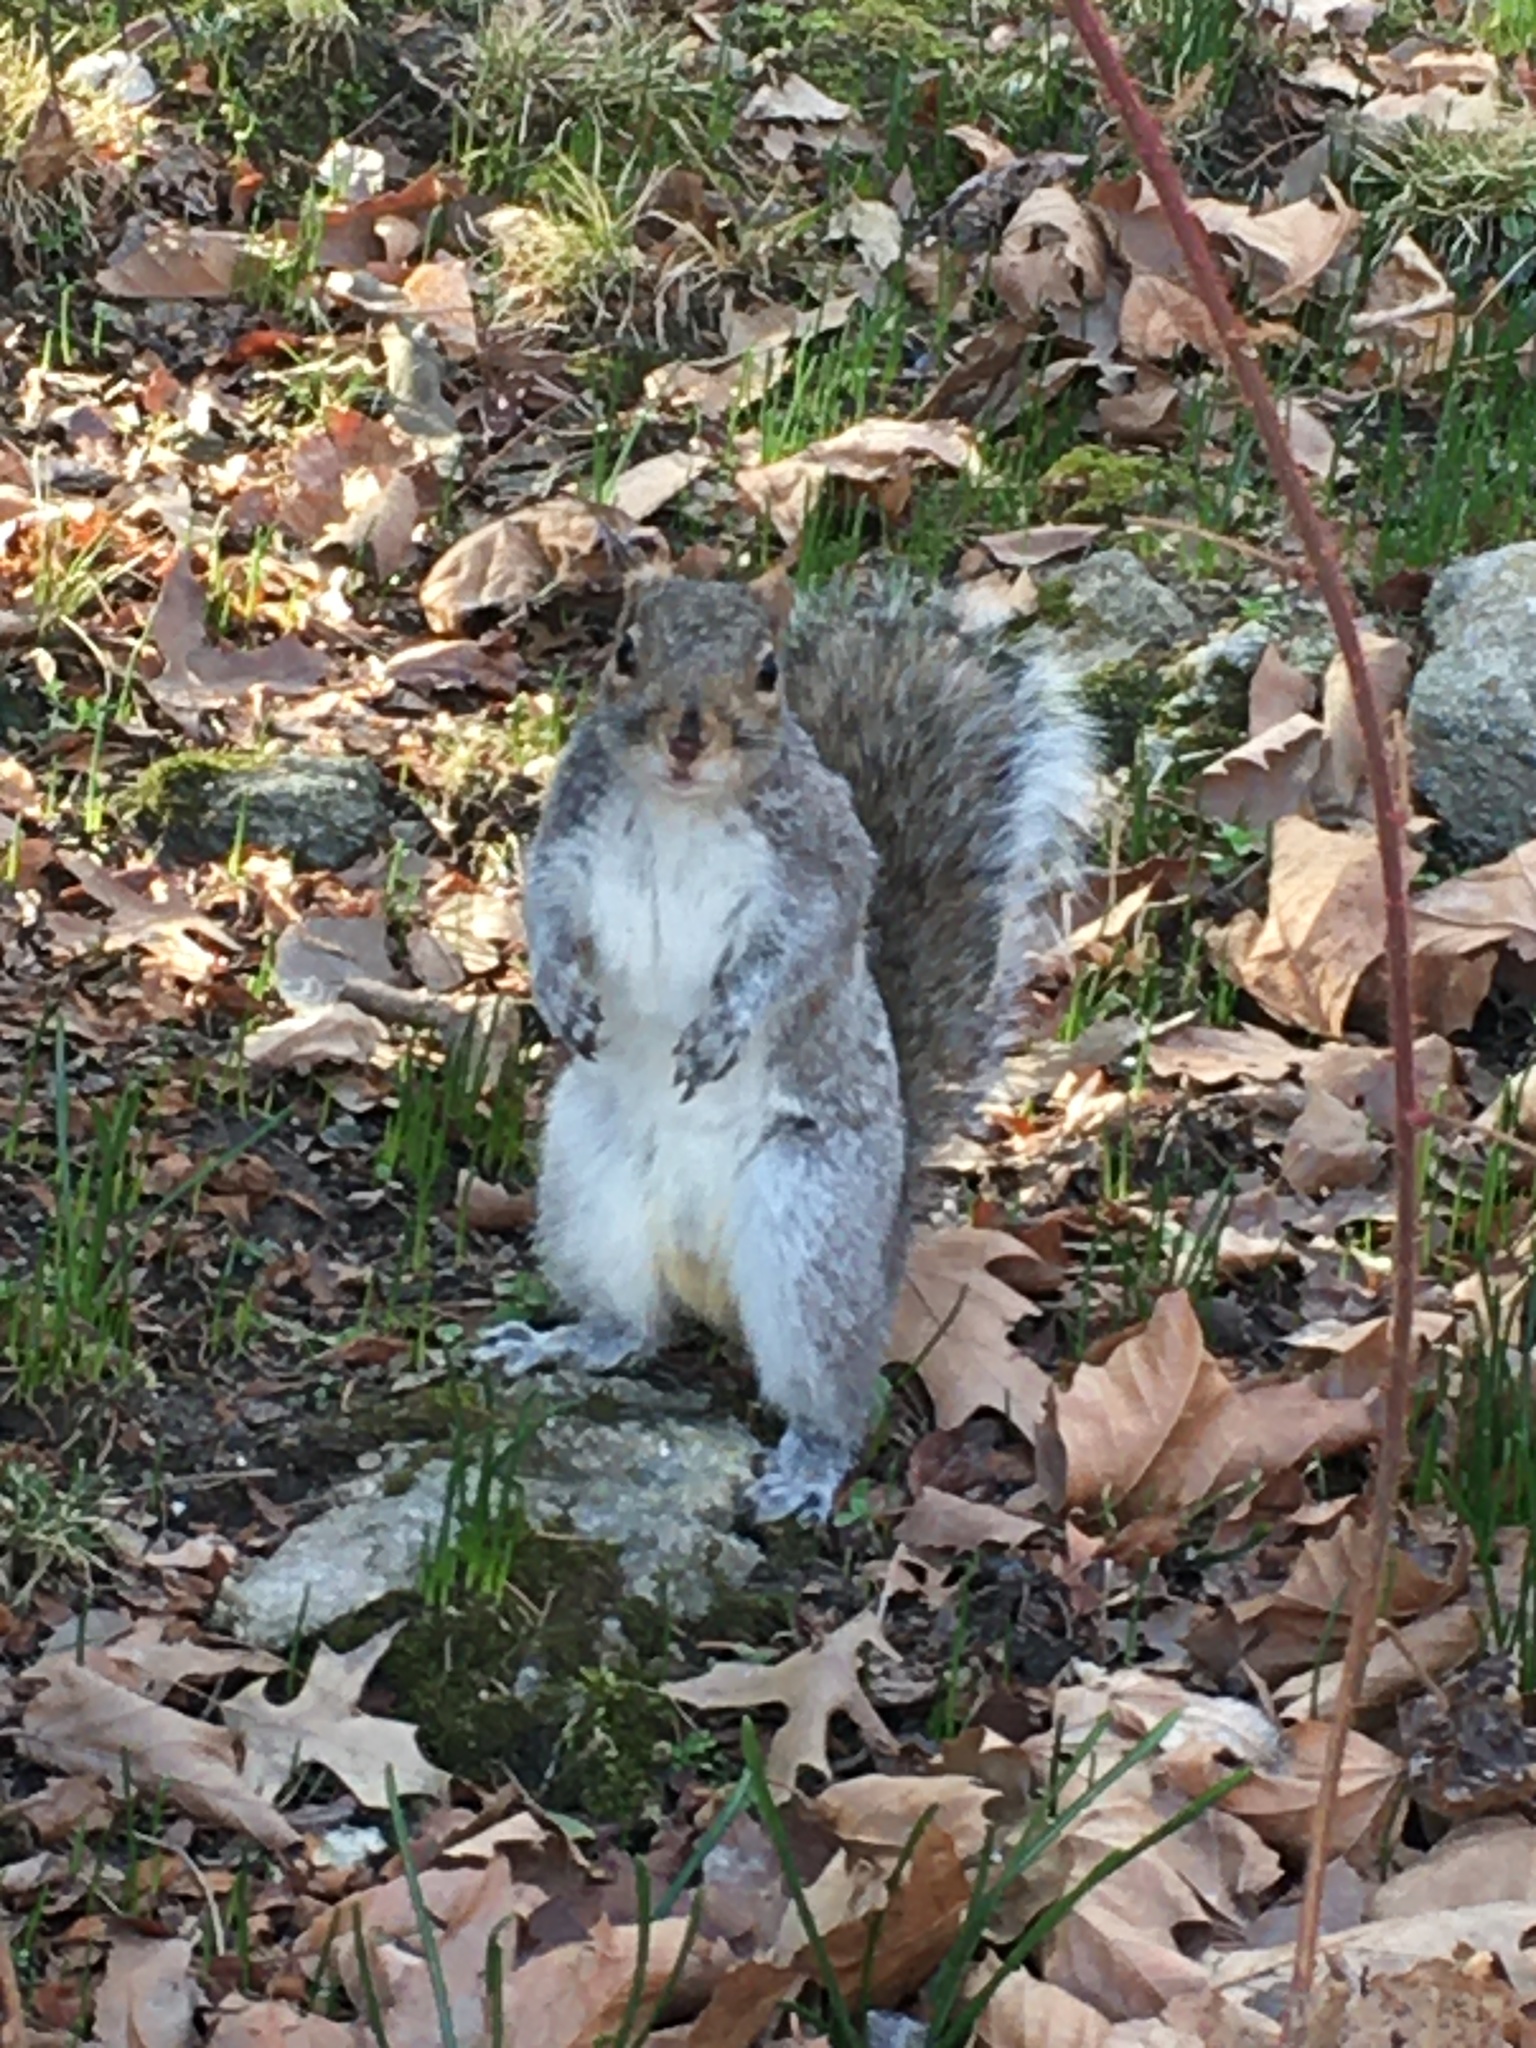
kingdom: Animalia
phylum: Chordata
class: Mammalia
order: Rodentia
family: Sciuridae
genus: Sciurus
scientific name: Sciurus carolinensis
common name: Eastern gray squirrel
